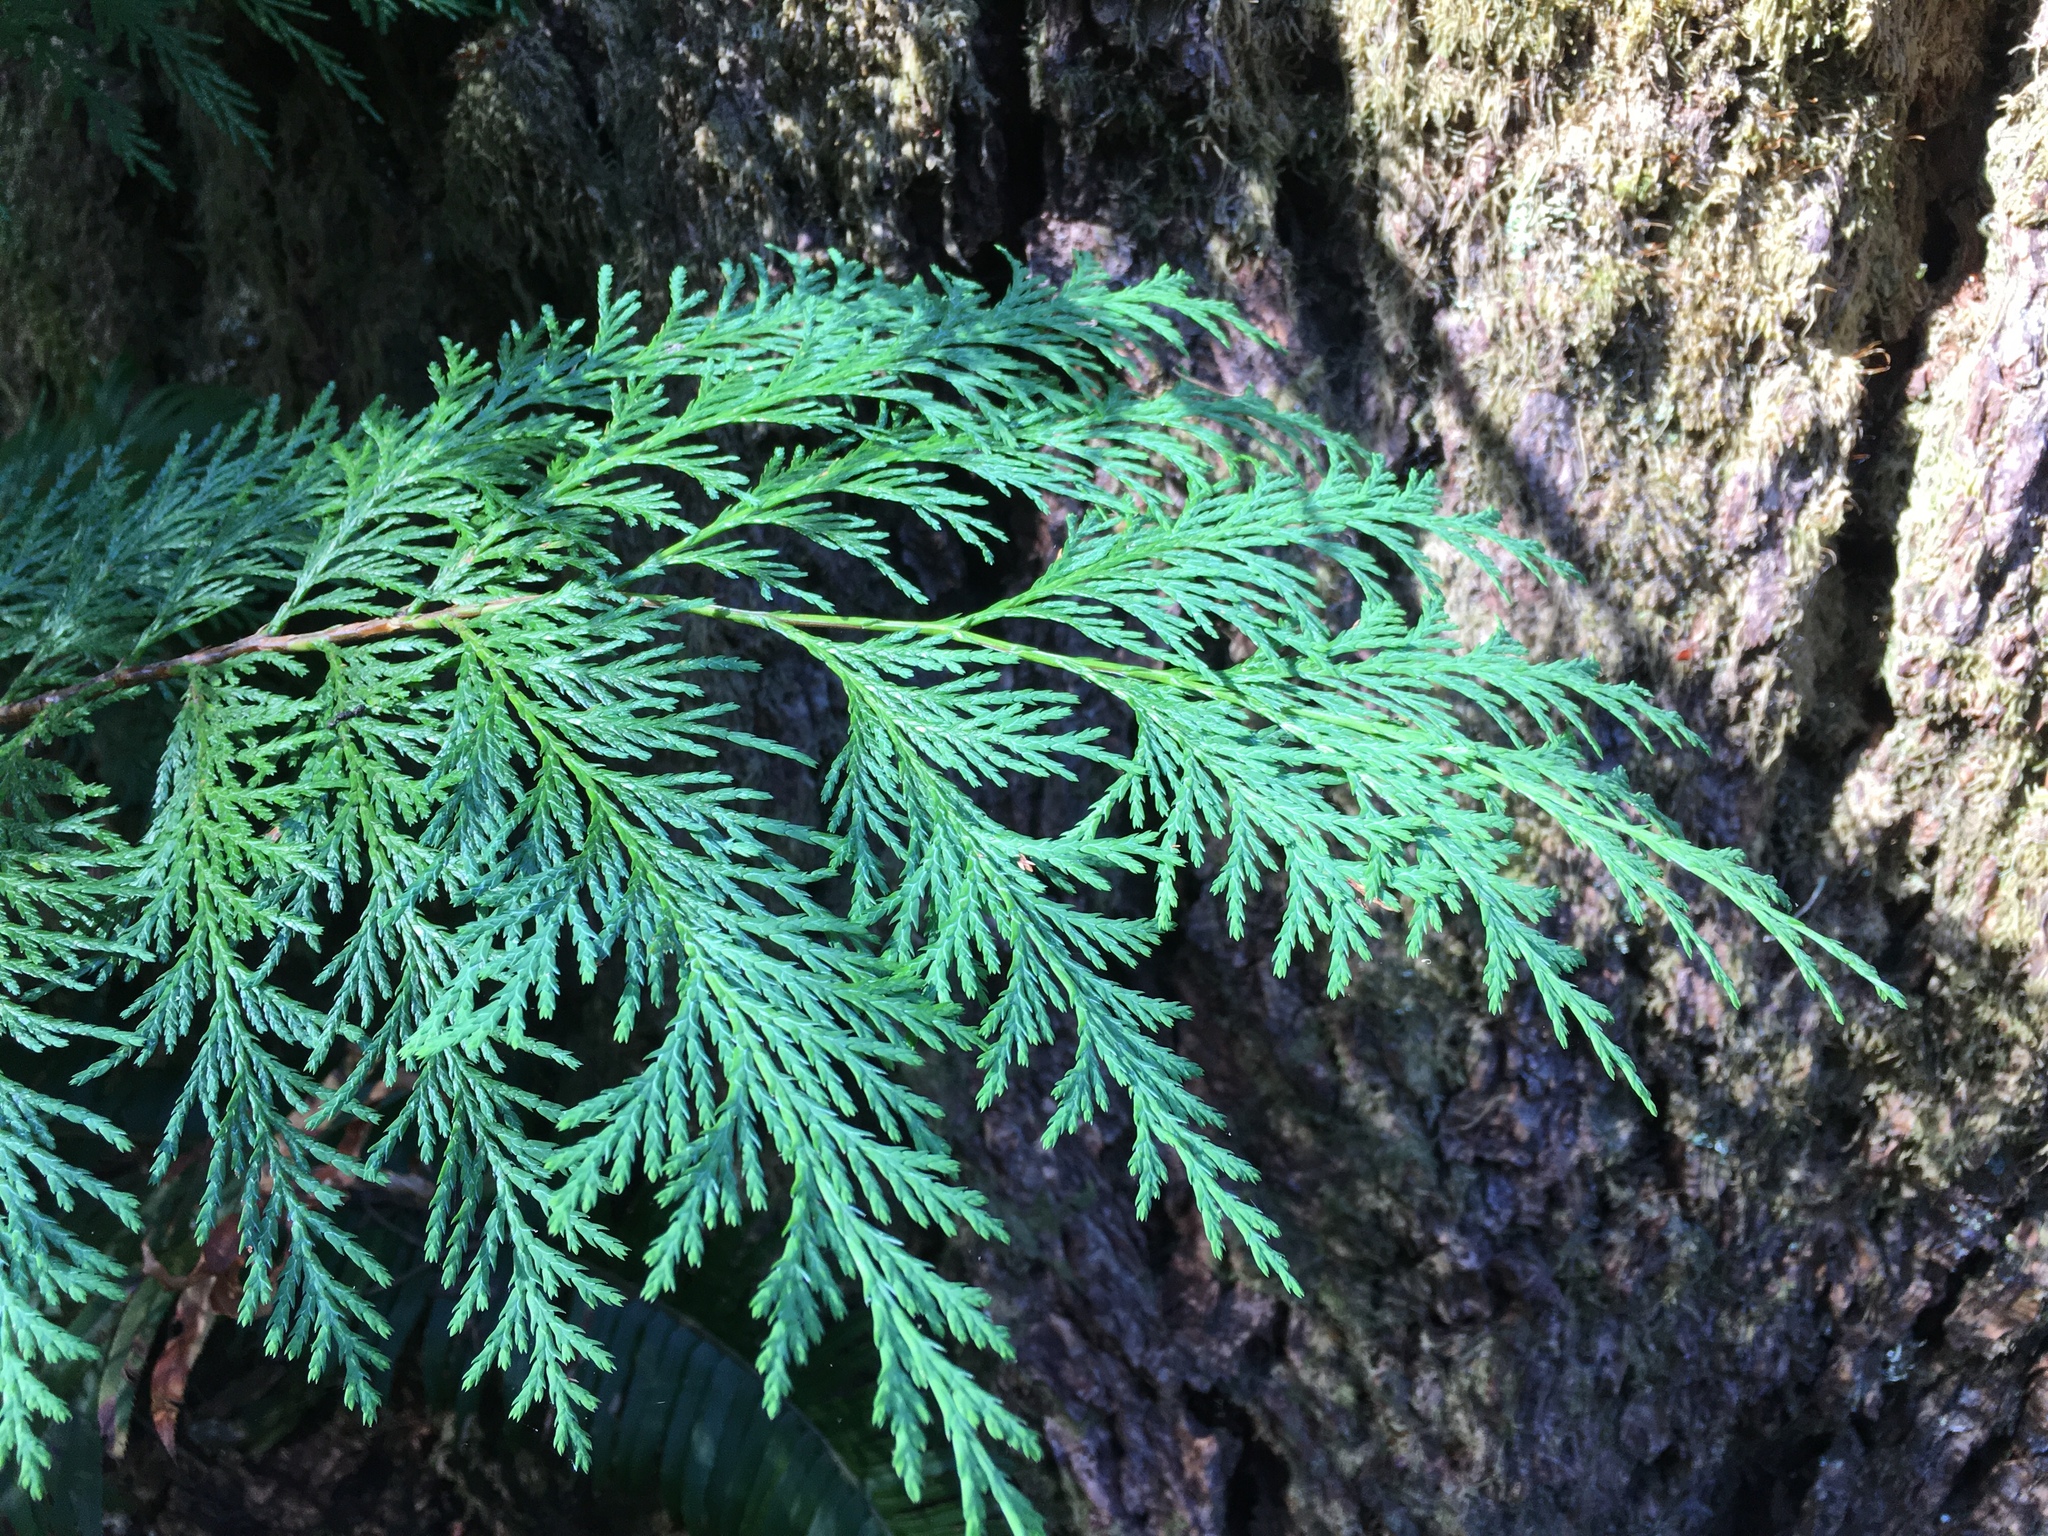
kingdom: Plantae
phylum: Tracheophyta
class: Pinopsida
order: Pinales
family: Cupressaceae
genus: Chamaecyparis
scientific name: Chamaecyparis lawsoniana
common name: Lawson's cypress
